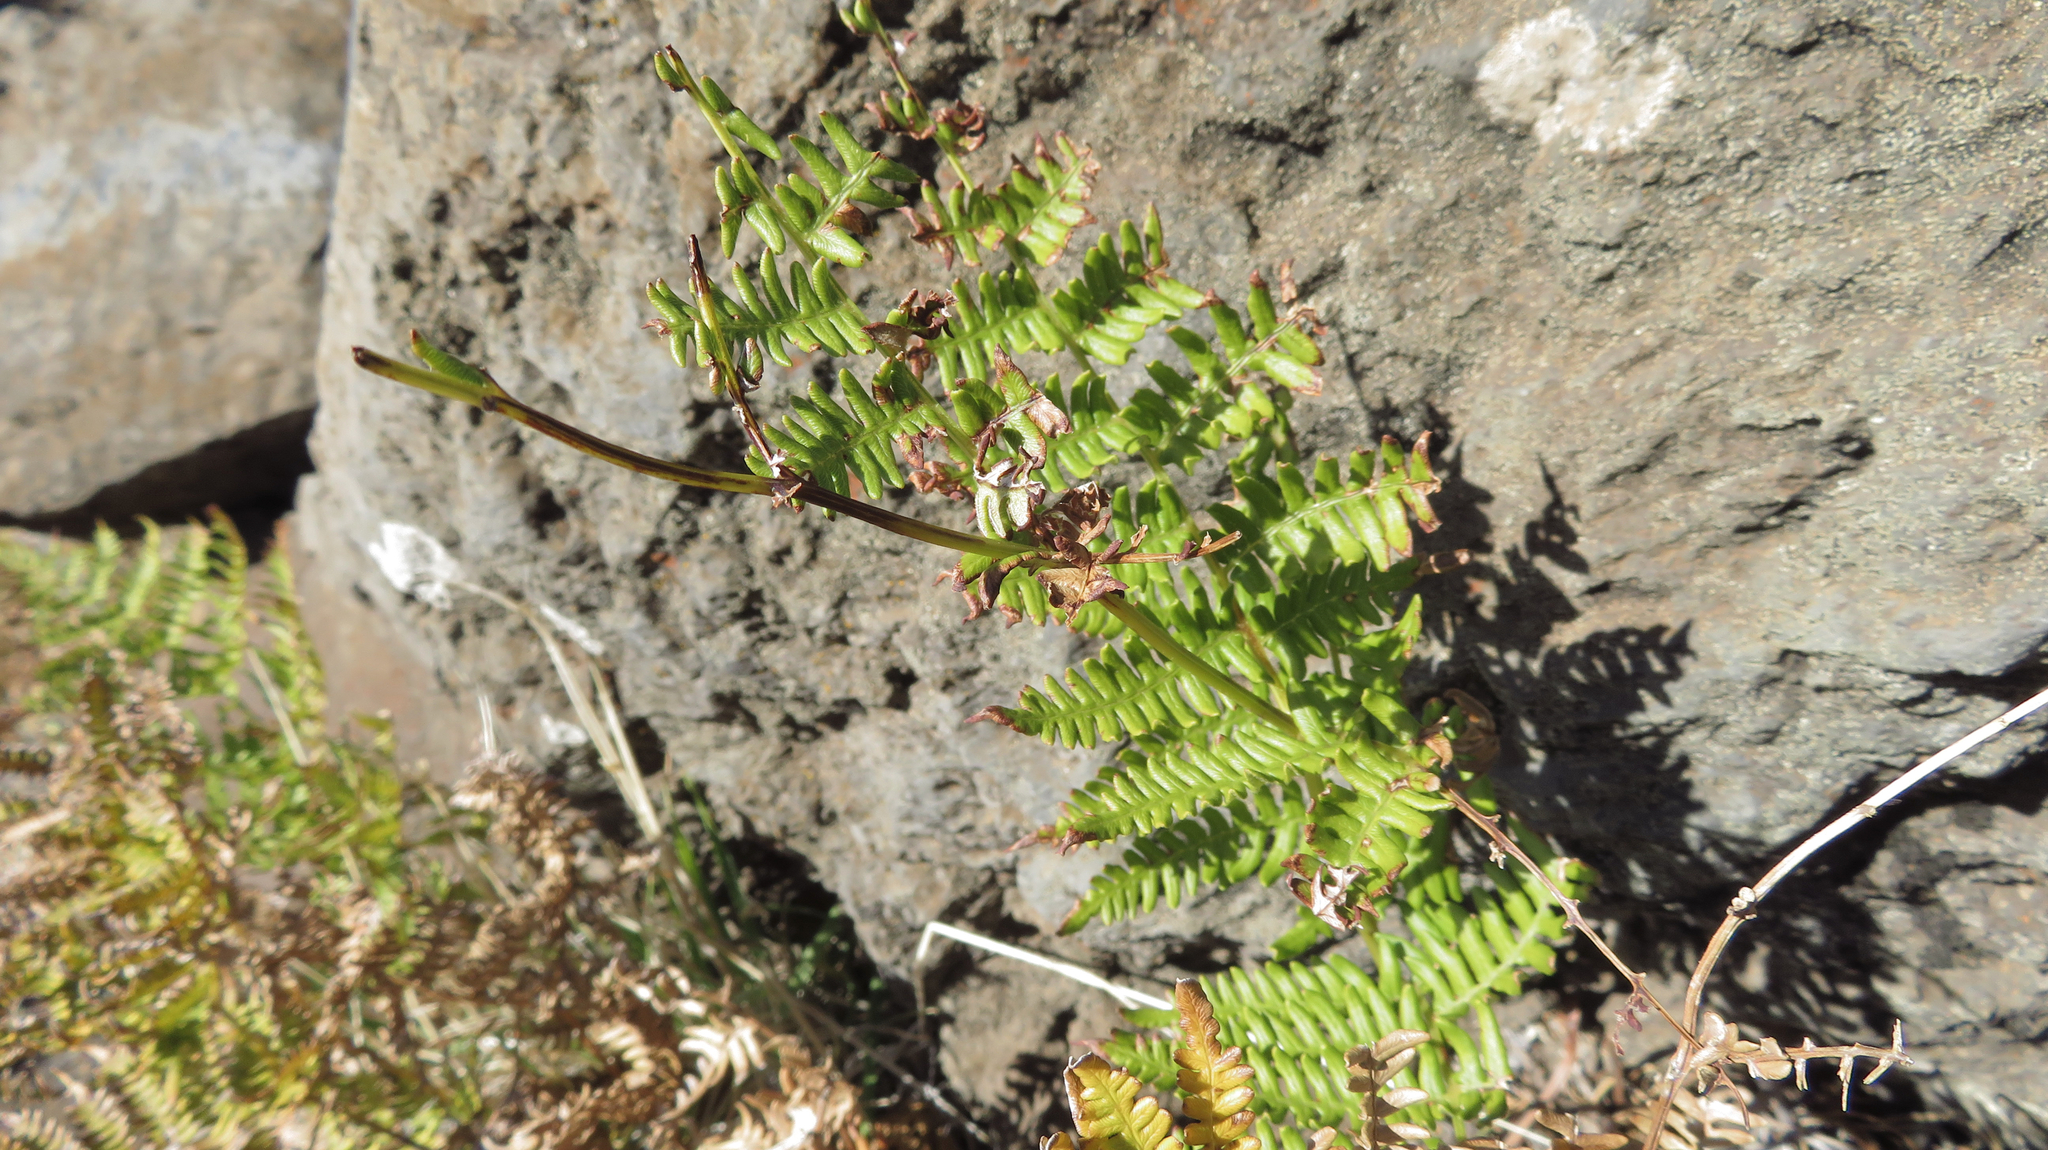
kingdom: Plantae
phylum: Tracheophyta
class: Polypodiopsida
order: Polypodiales
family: Dennstaedtiaceae
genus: Pteridium
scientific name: Pteridium aquilinum
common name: Bracken
